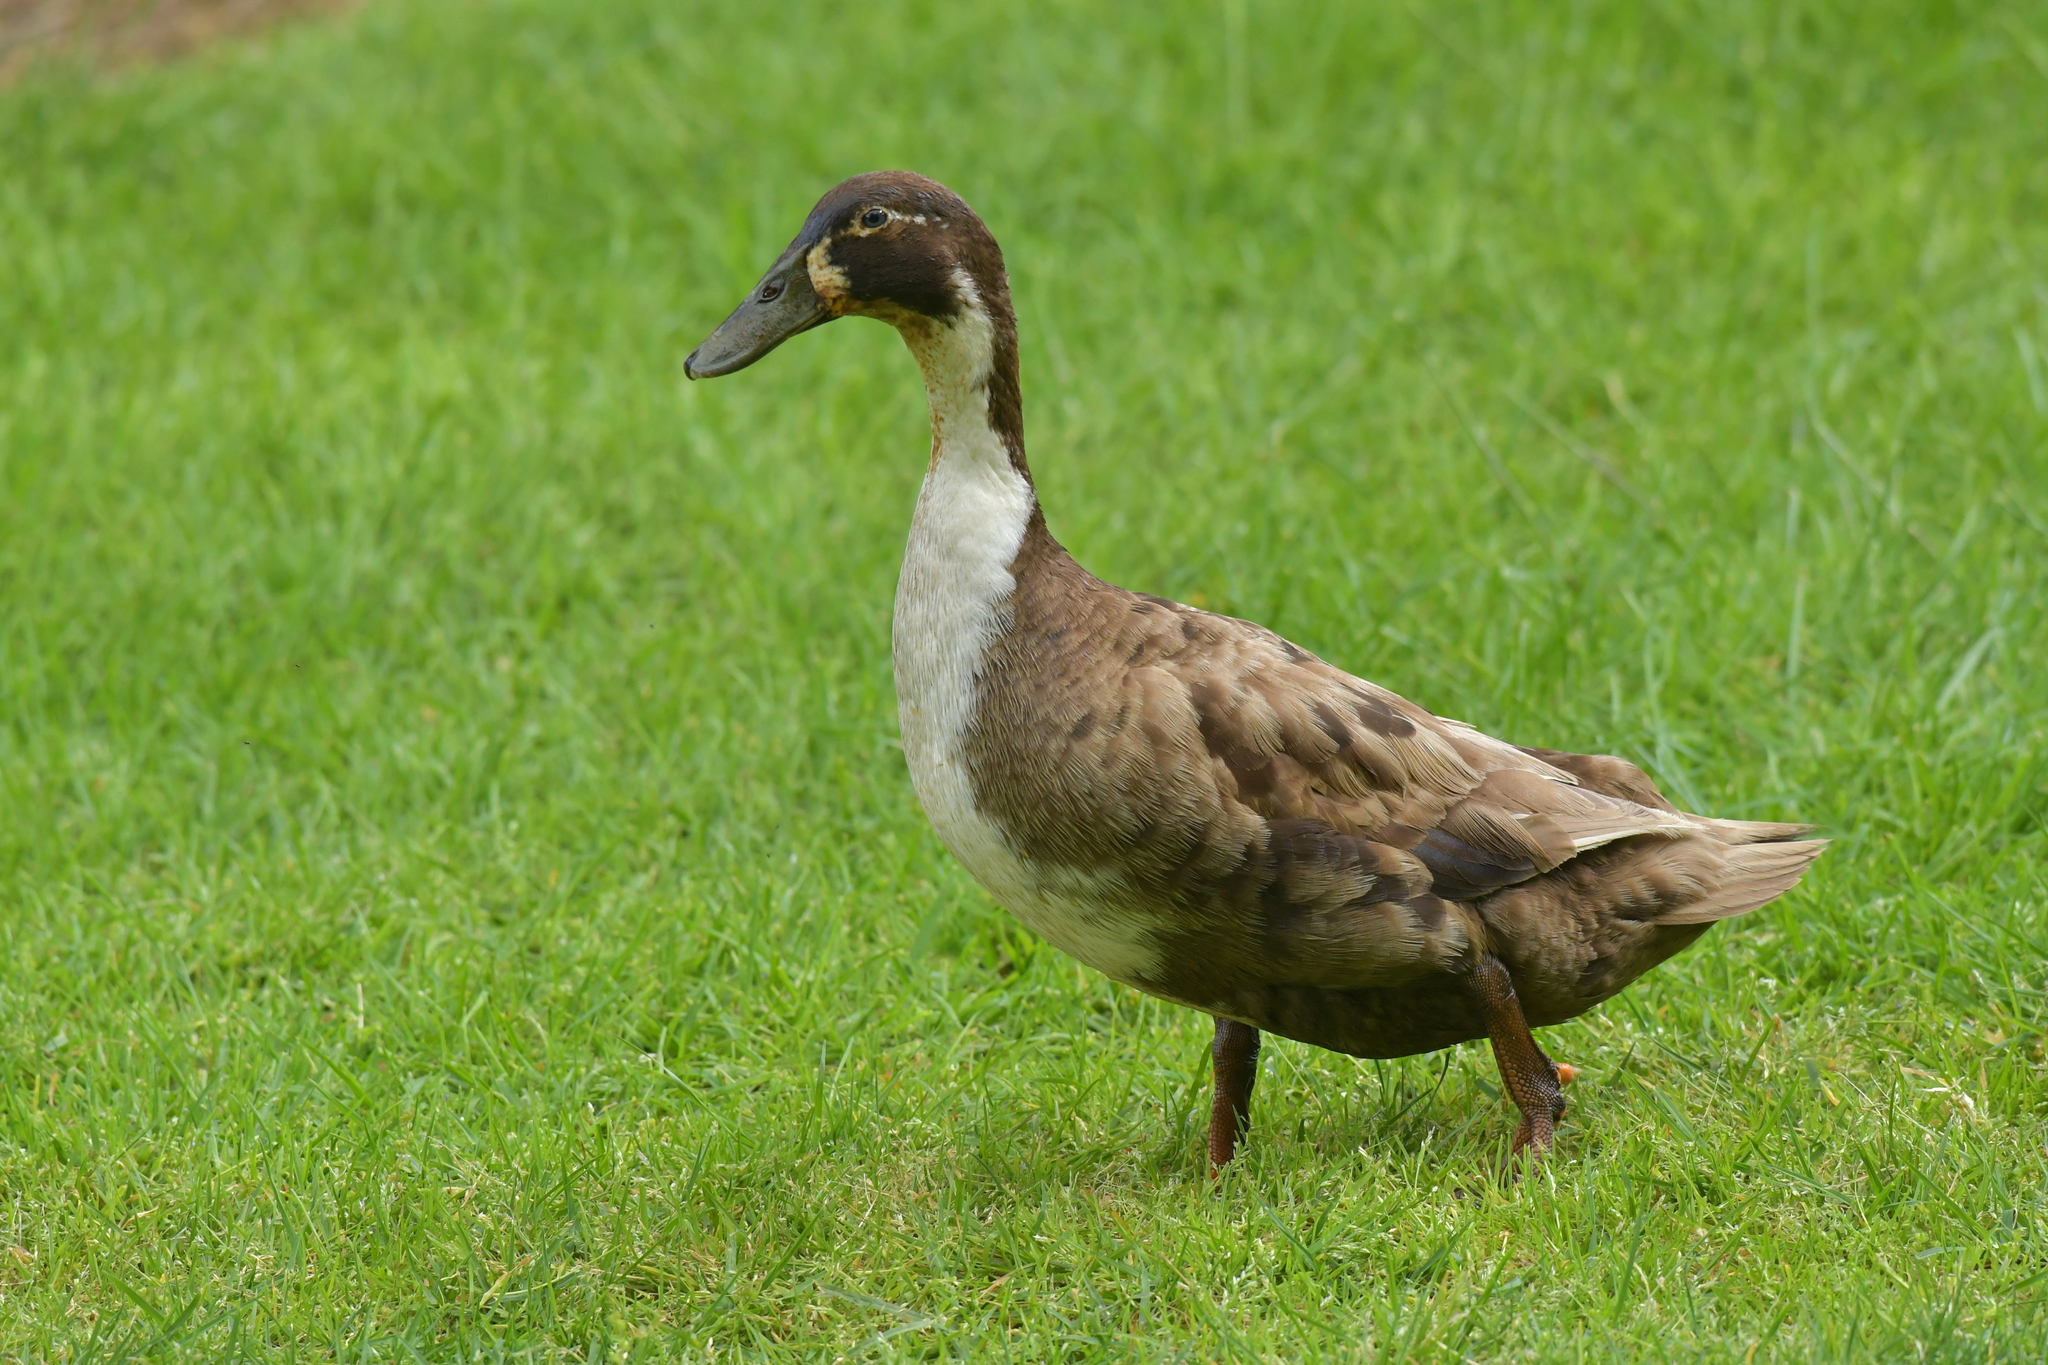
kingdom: Animalia
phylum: Chordata
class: Aves
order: Anseriformes
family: Anatidae
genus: Anas
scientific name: Anas platyrhynchos
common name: Mallard
